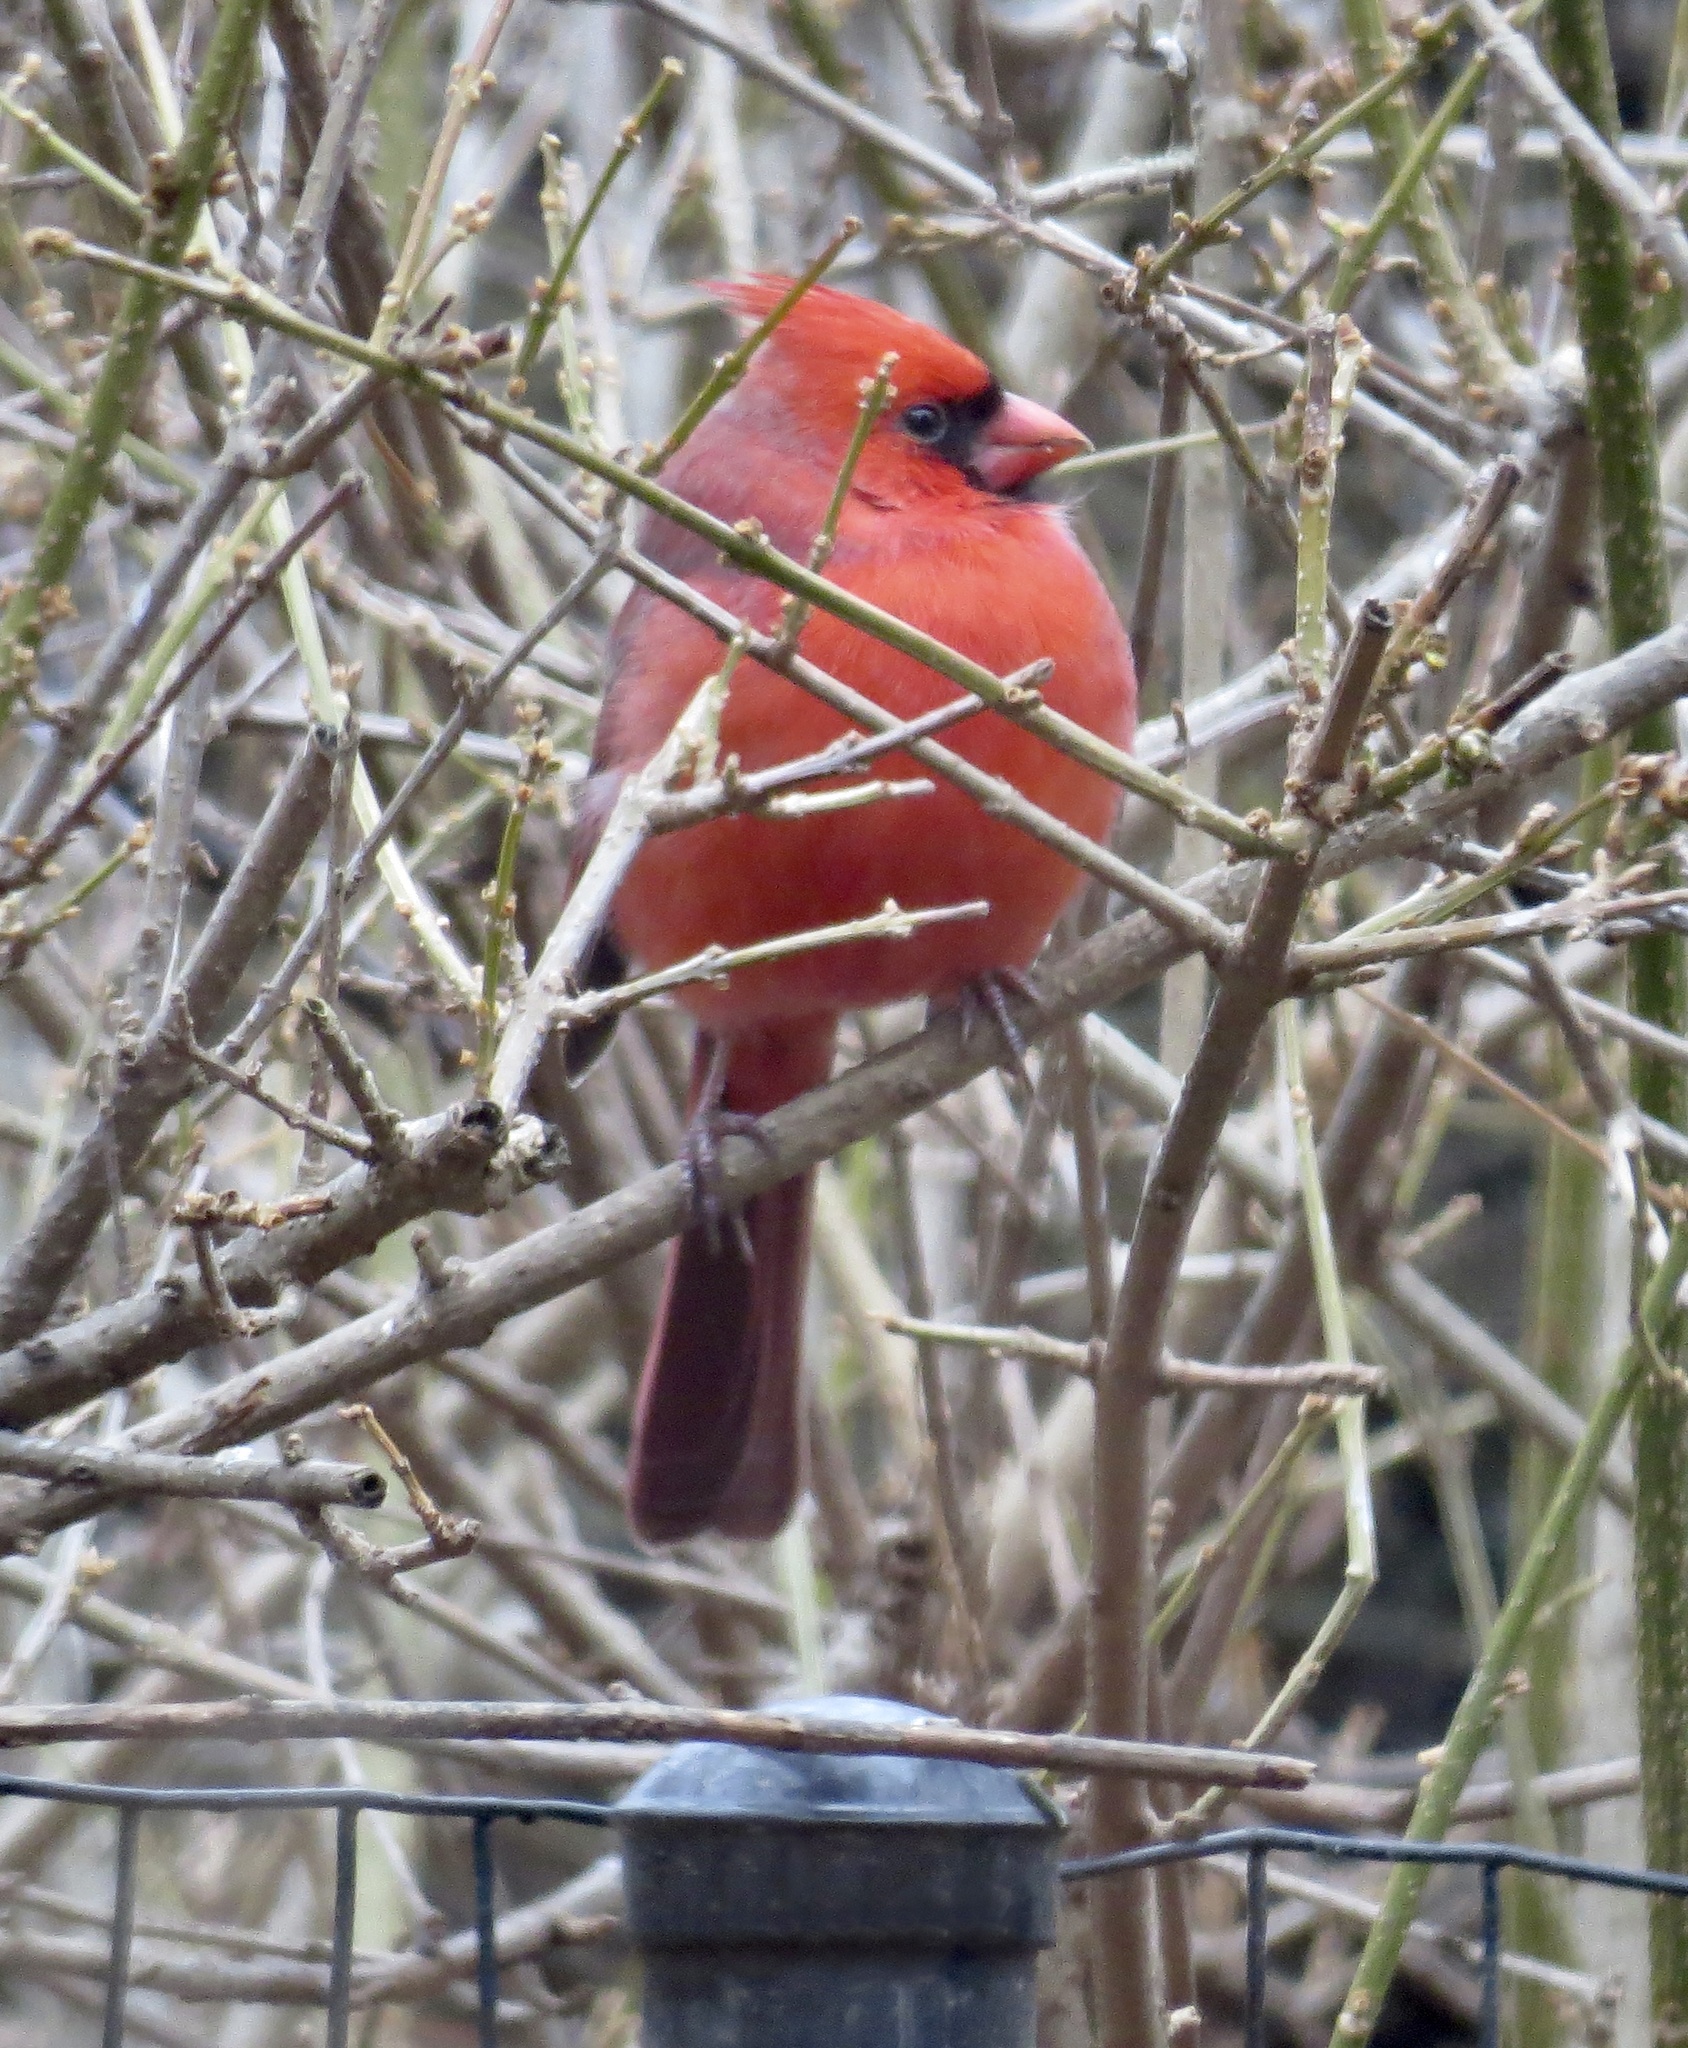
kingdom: Animalia
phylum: Chordata
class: Aves
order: Passeriformes
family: Cardinalidae
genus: Cardinalis
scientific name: Cardinalis cardinalis
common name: Northern cardinal
